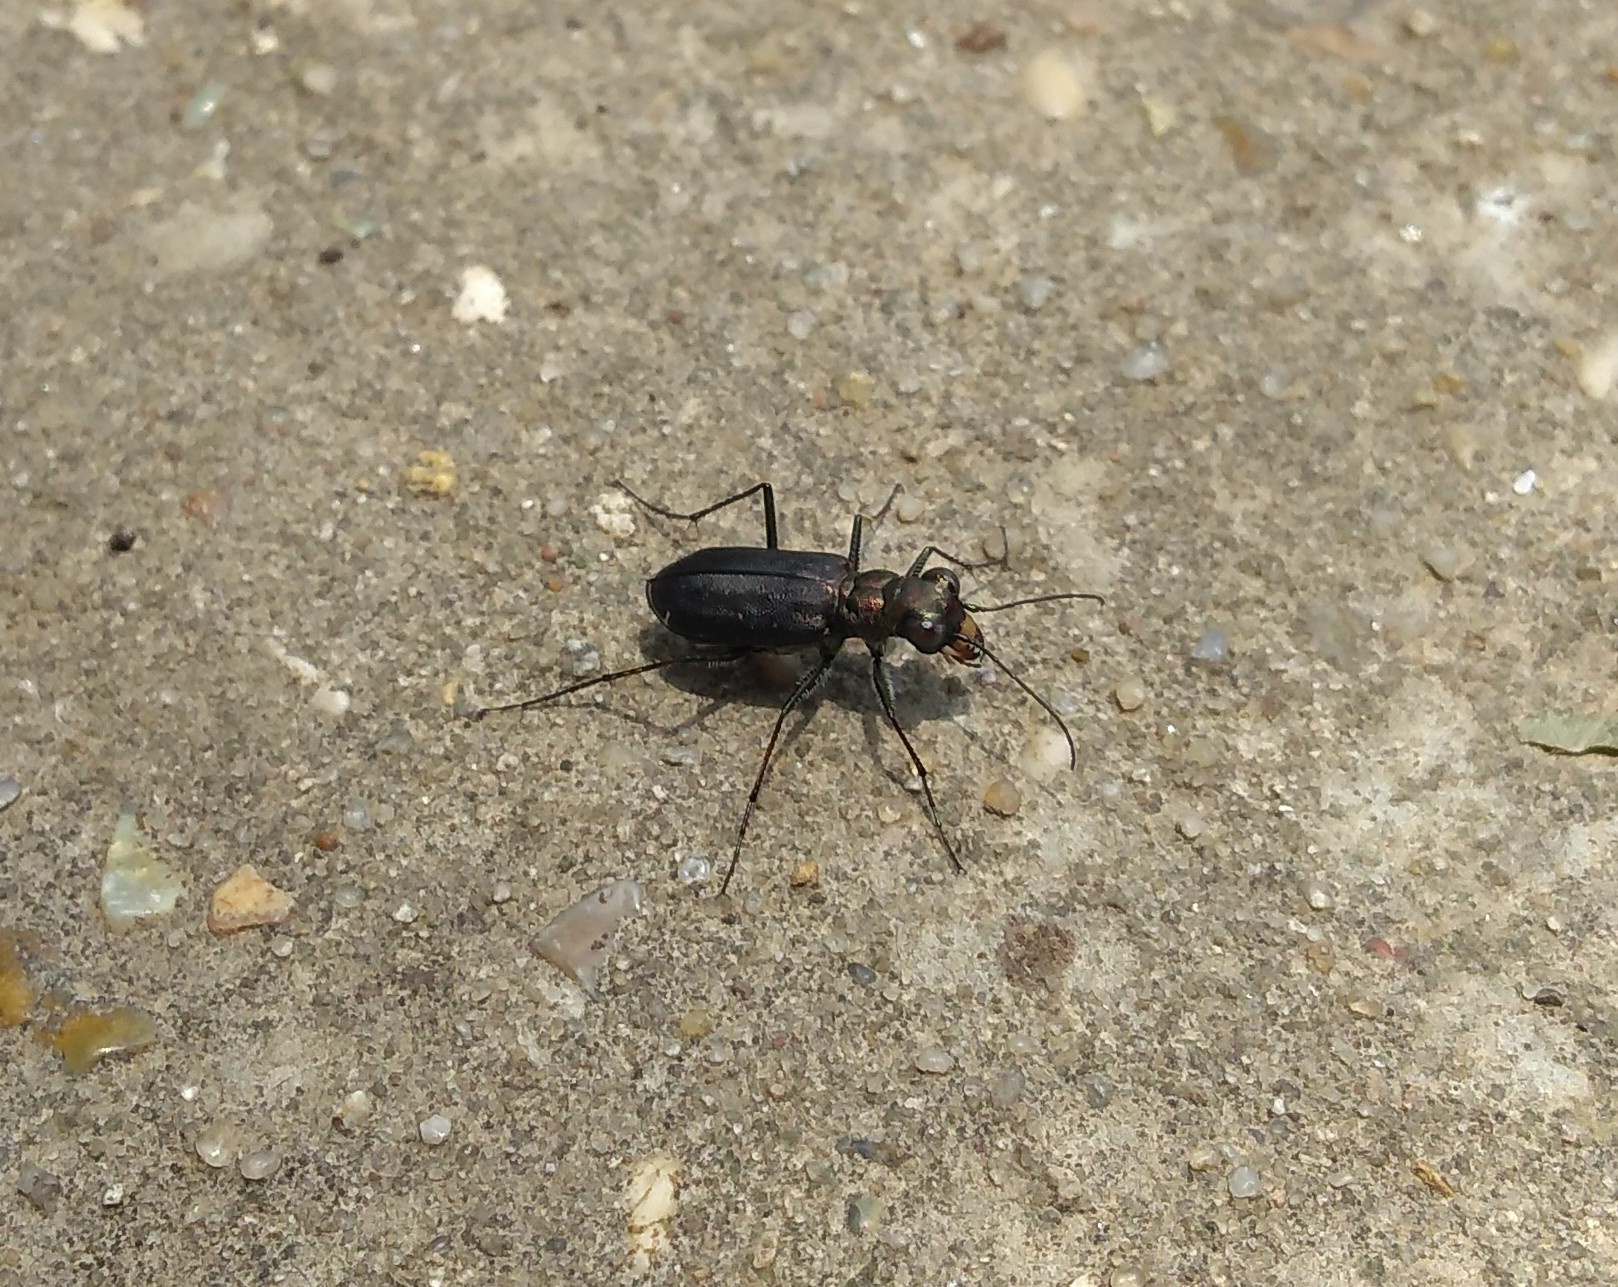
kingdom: Animalia
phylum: Arthropoda
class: Insecta
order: Coleoptera
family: Carabidae
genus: Cicindela
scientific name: Cicindela punctulata
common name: Punctured tiger beetle
